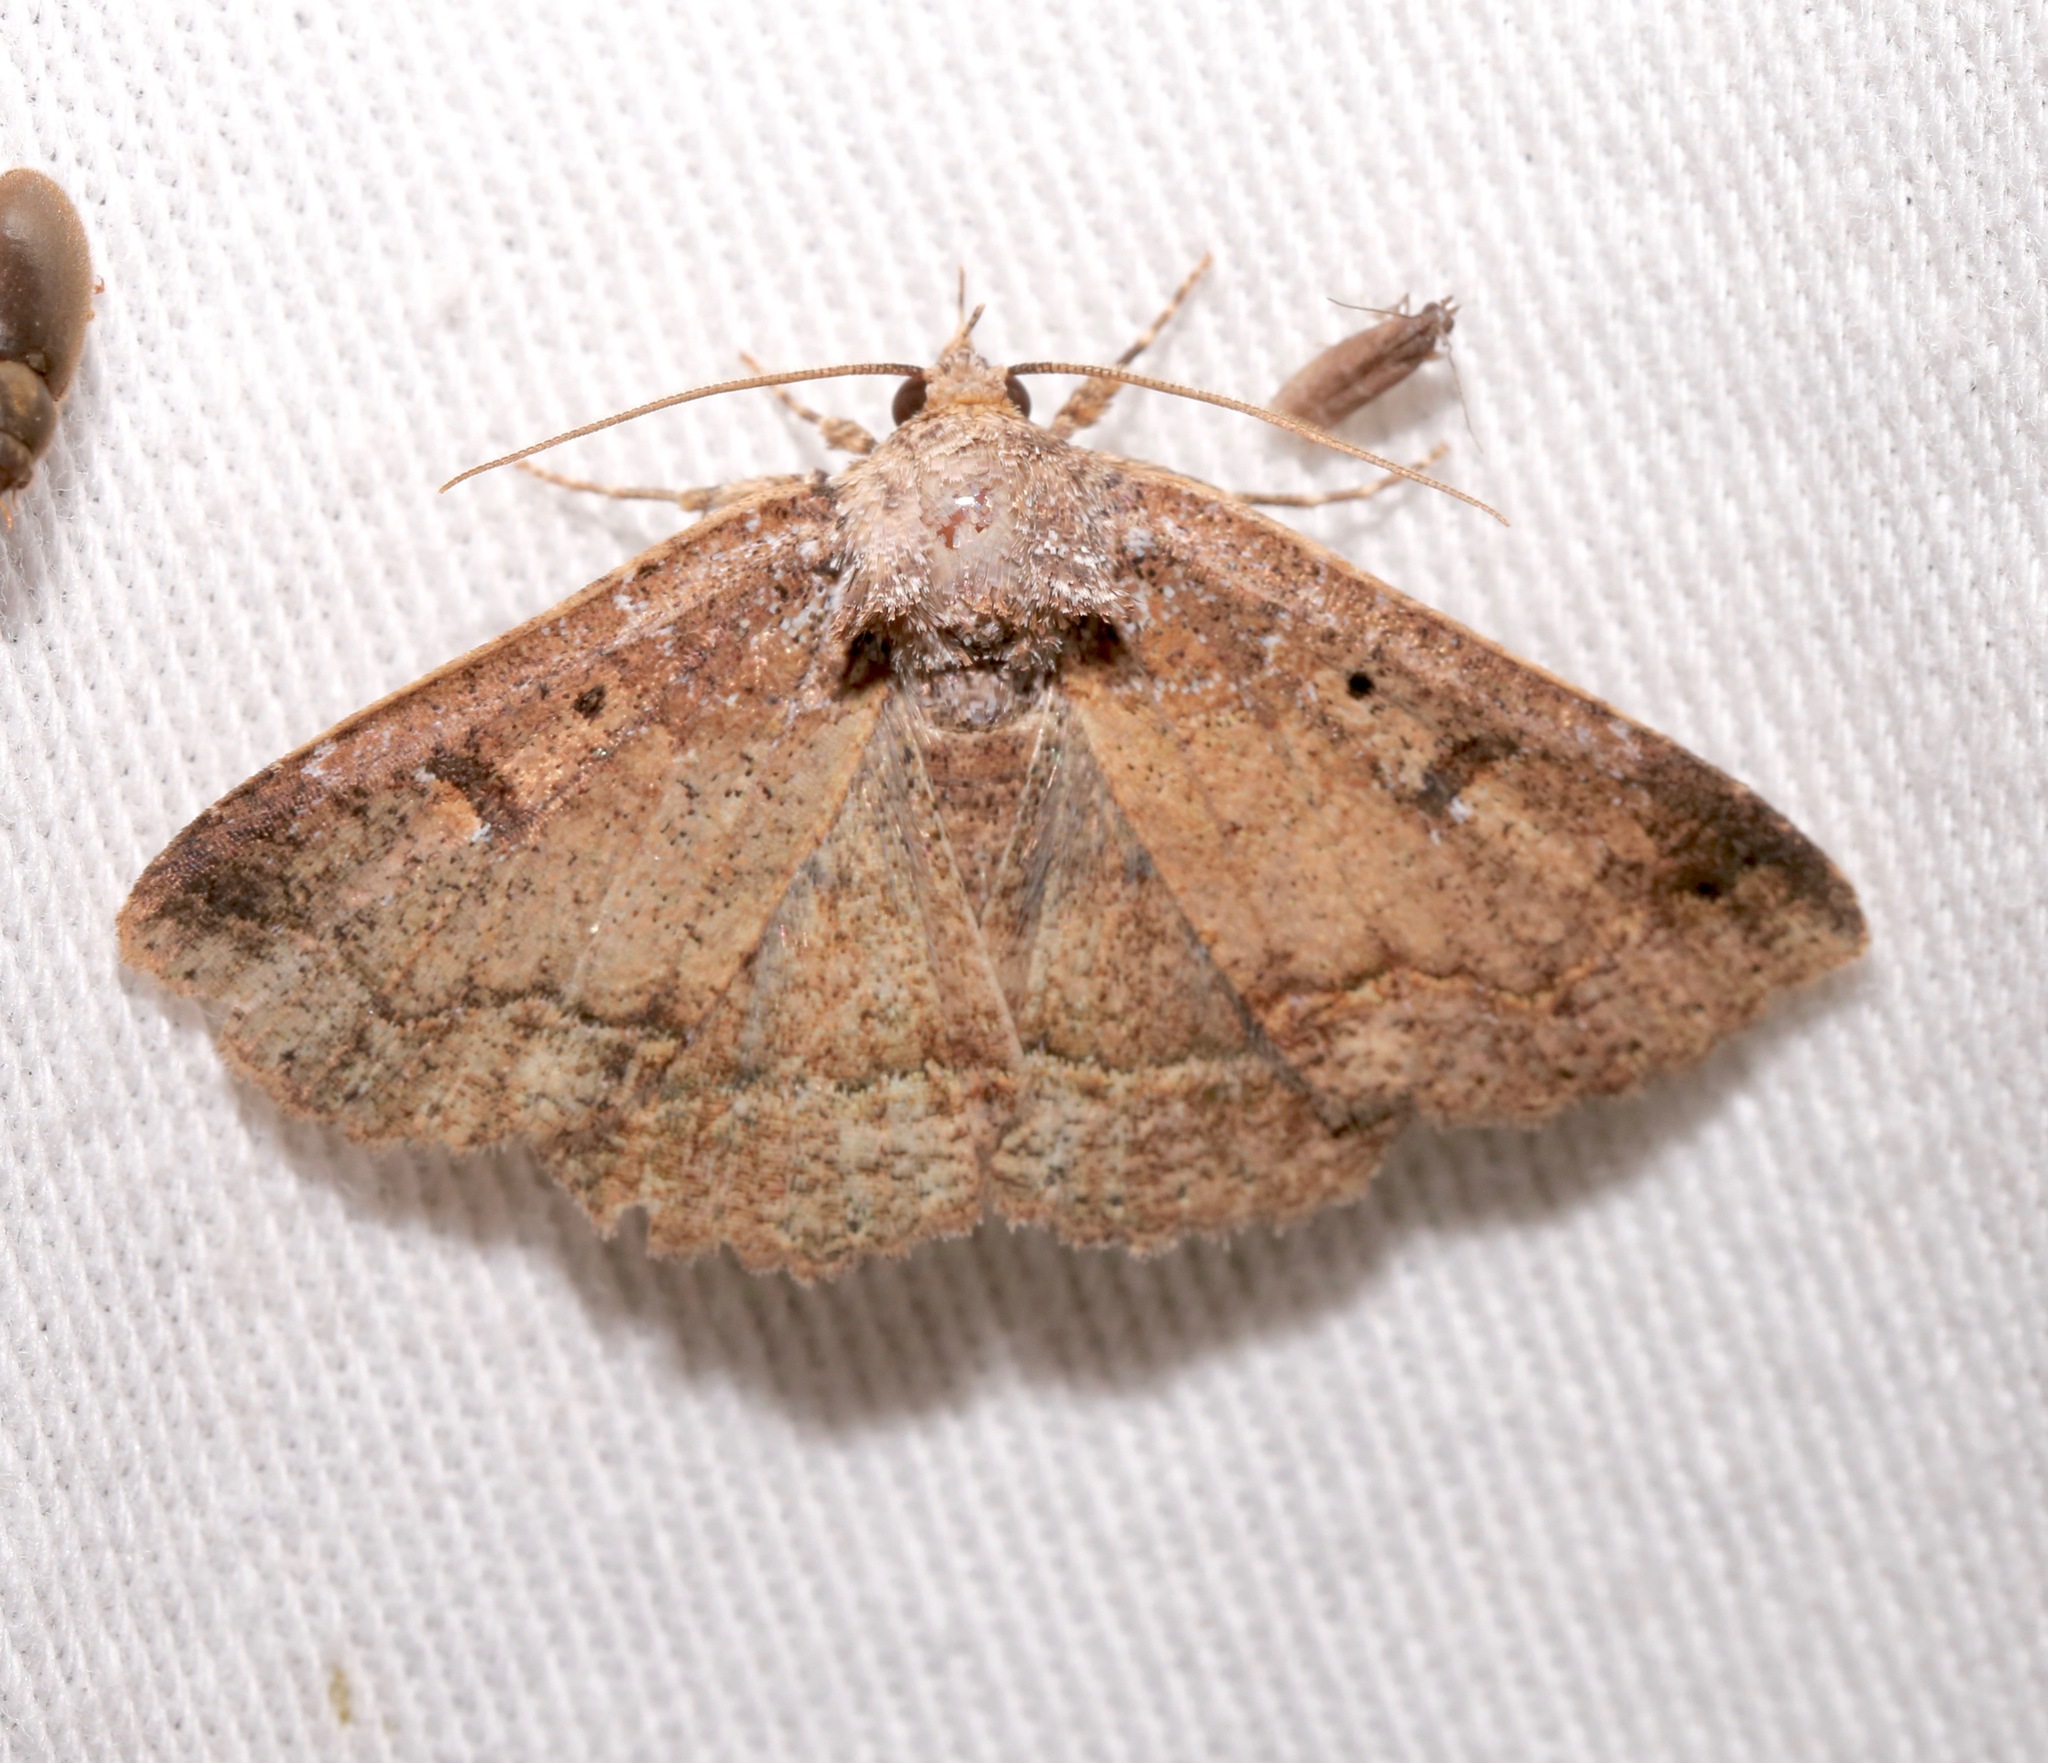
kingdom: Animalia
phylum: Arthropoda
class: Insecta
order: Lepidoptera
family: Erebidae
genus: Zale
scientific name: Zale declarans
